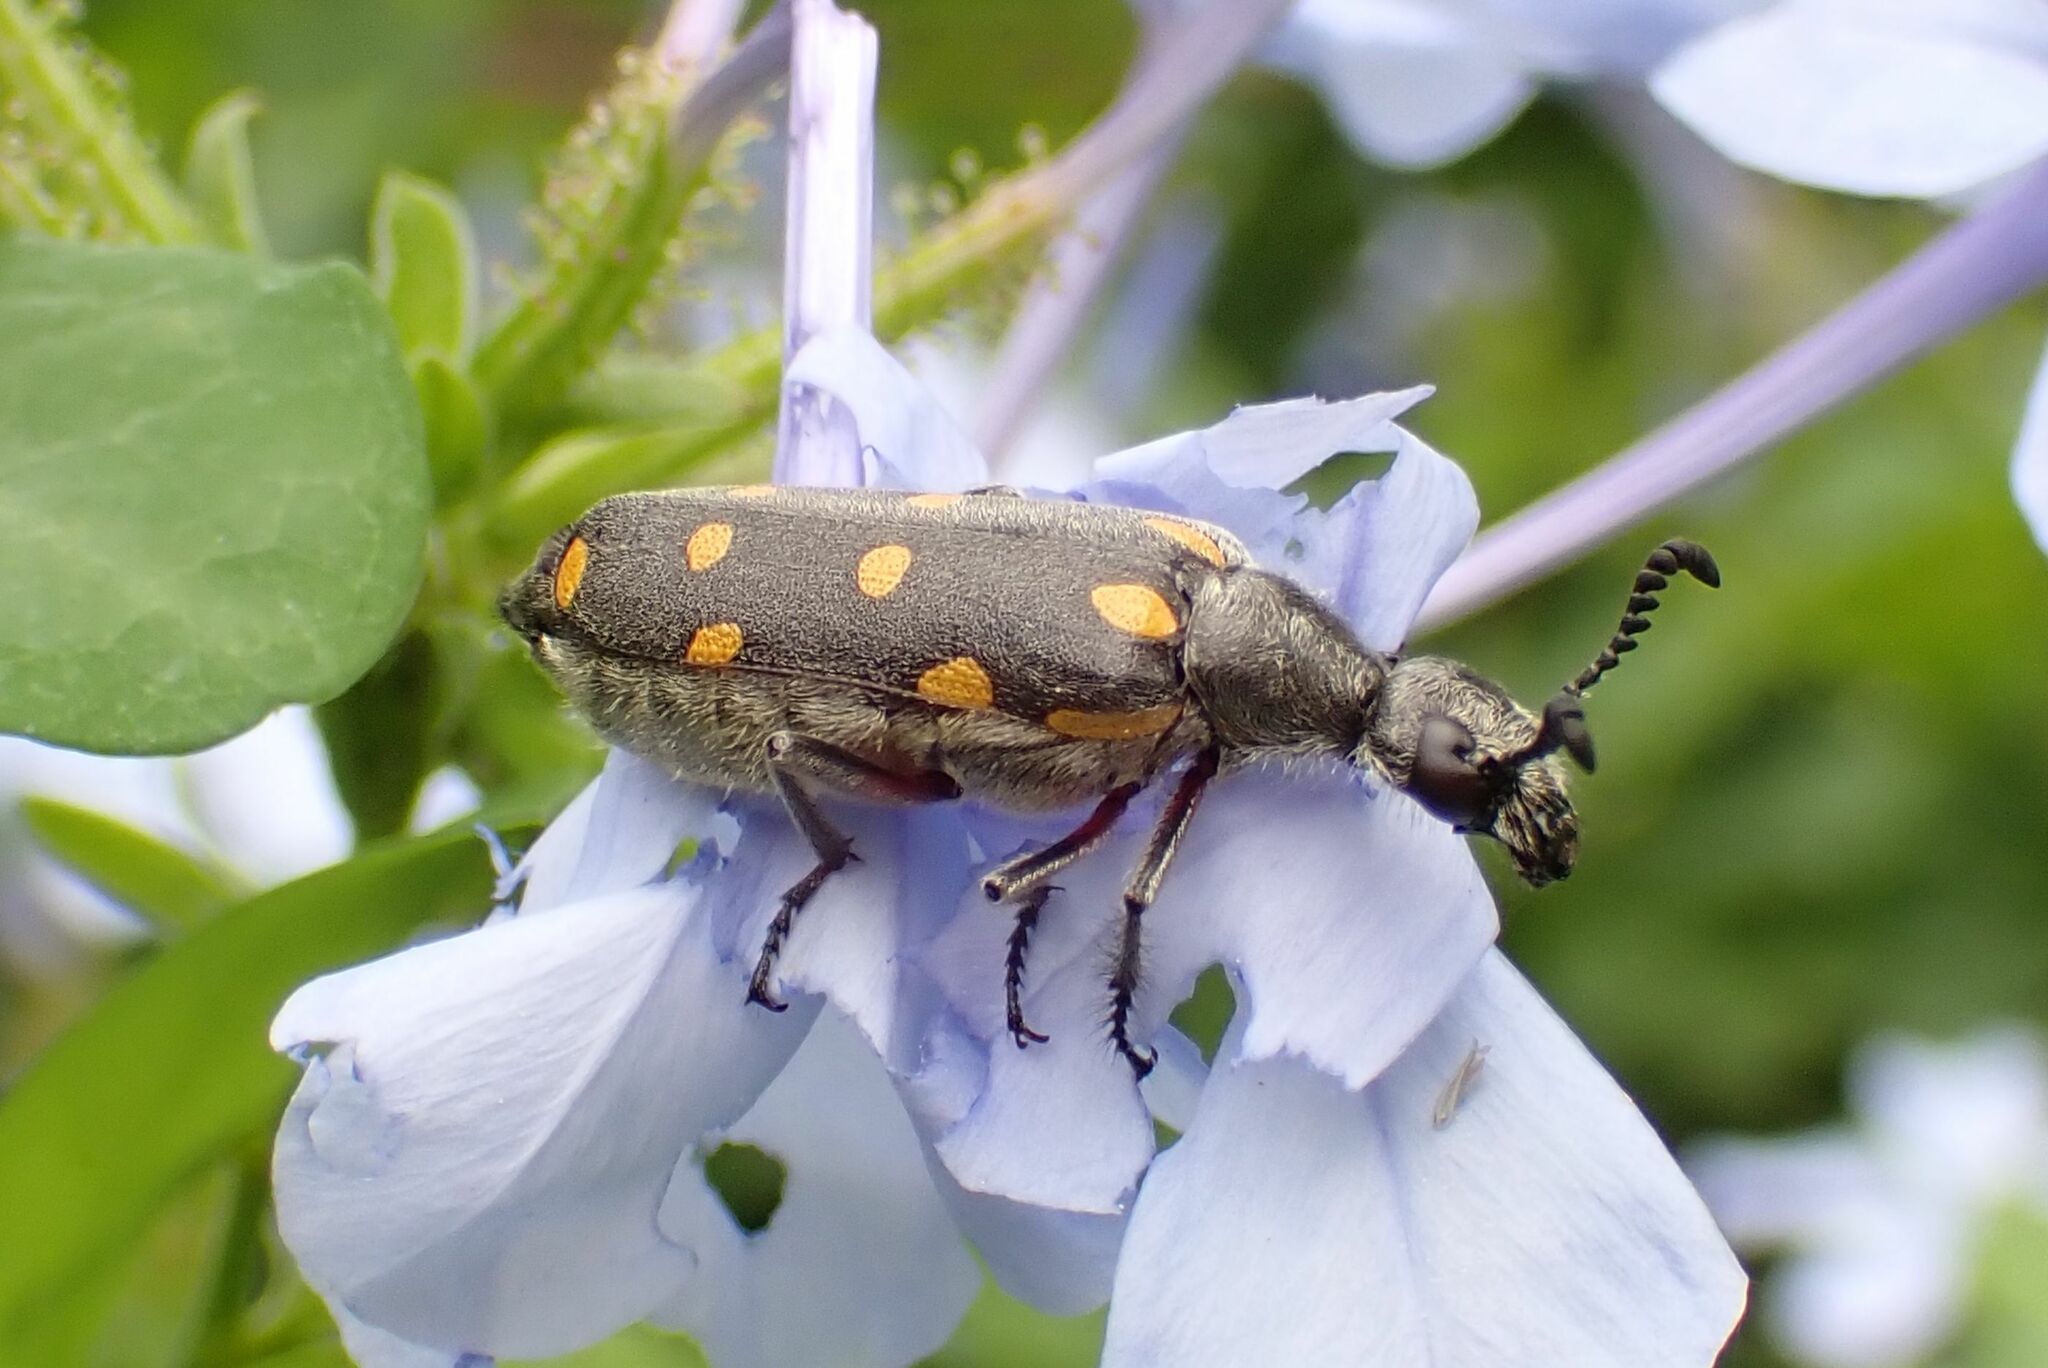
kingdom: Animalia
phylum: Arthropoda
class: Insecta
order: Coleoptera
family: Meloidae
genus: Ceroctis
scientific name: Ceroctis
